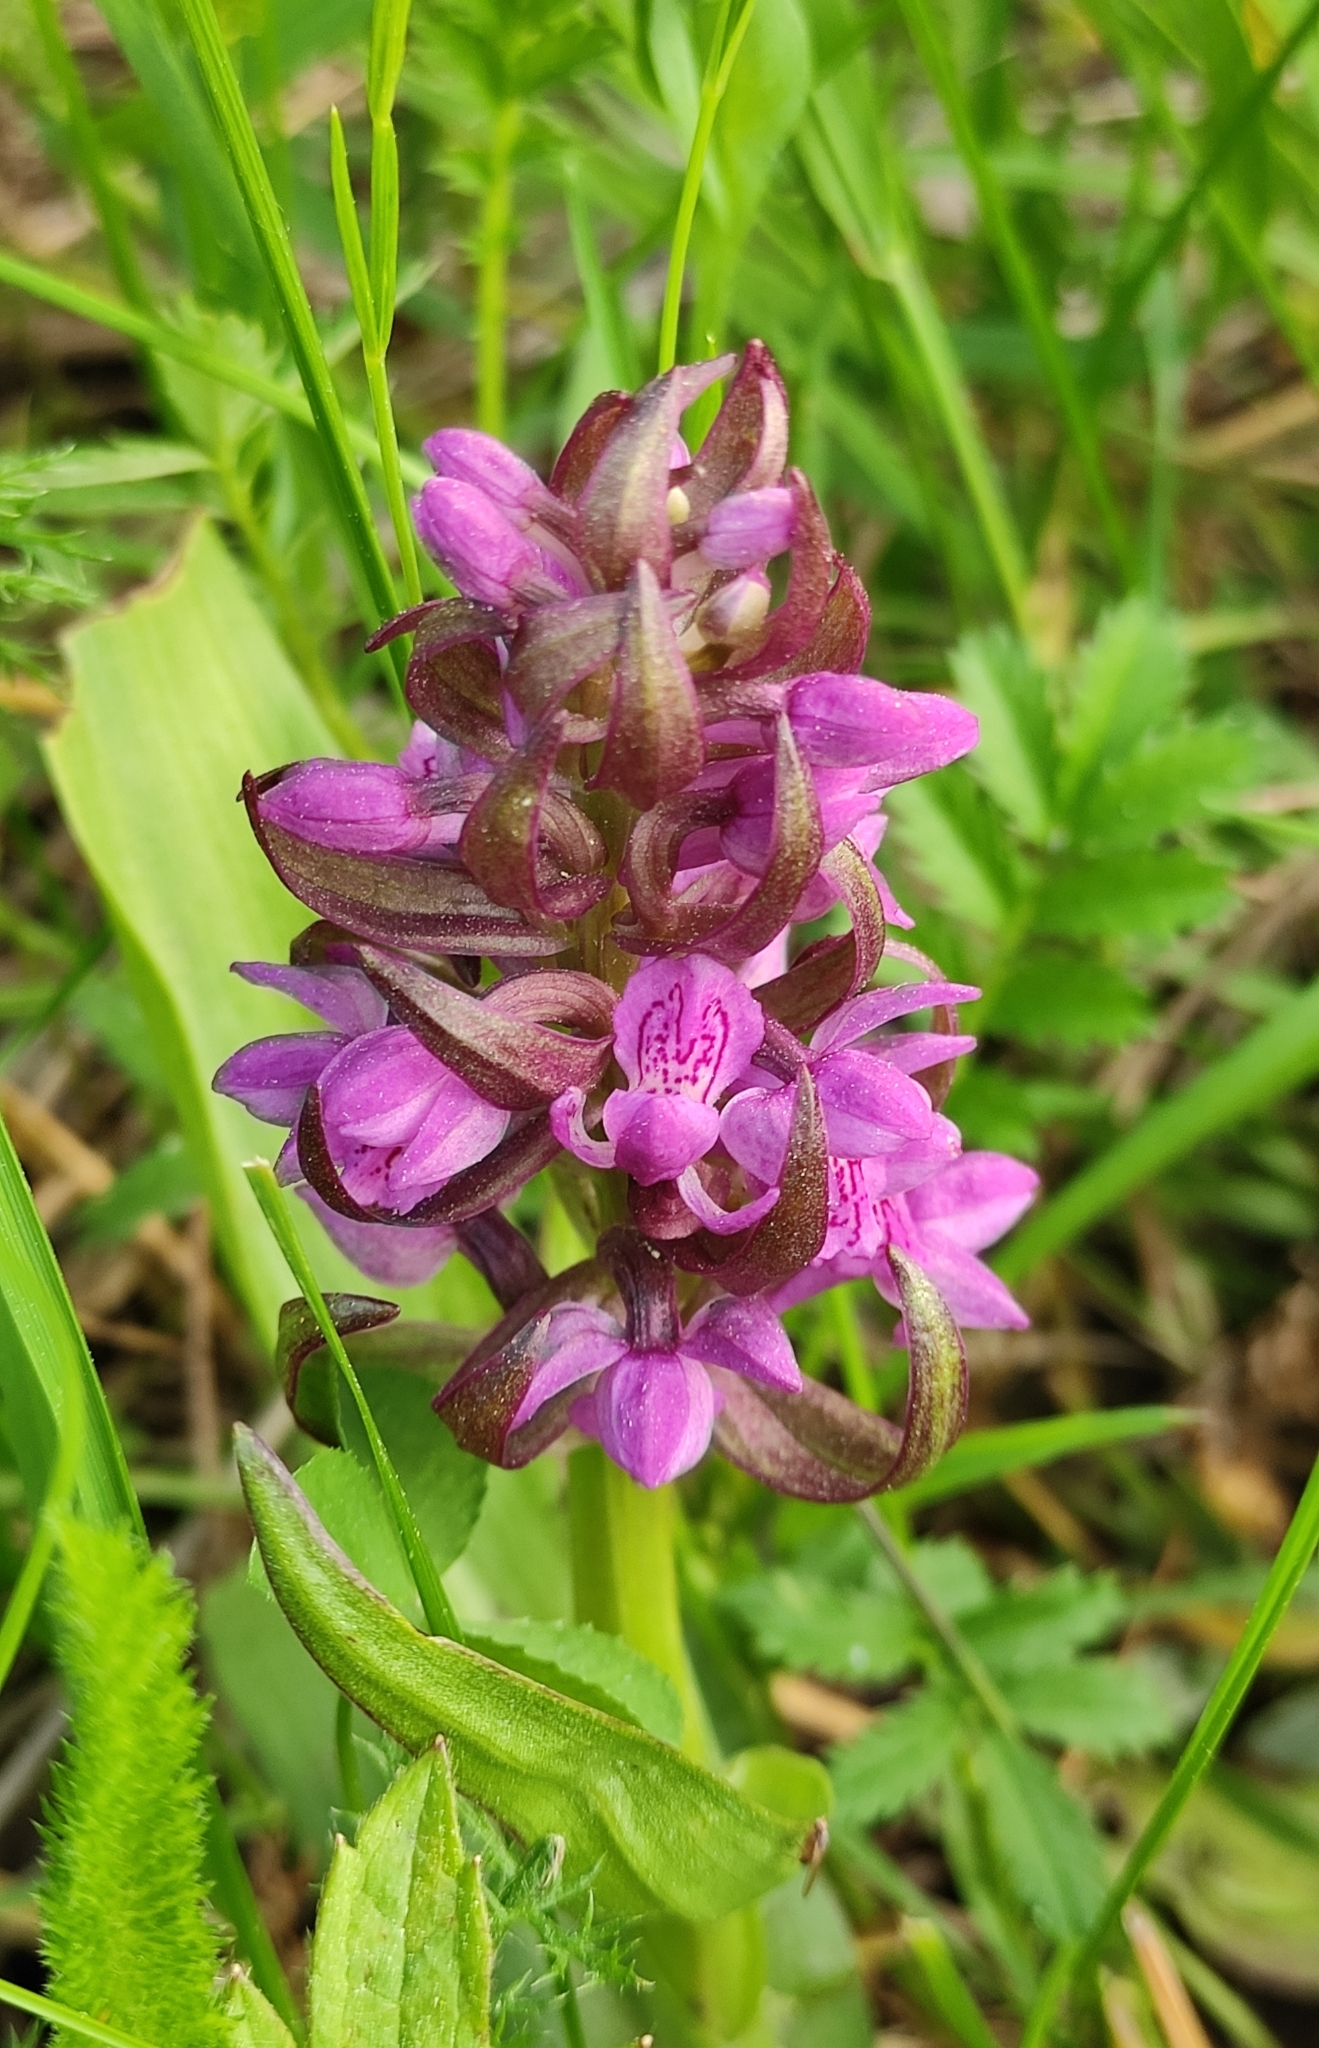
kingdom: Plantae
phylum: Tracheophyta
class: Liliopsida
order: Asparagales
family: Orchidaceae
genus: Dactylorhiza
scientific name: Dactylorhiza incarnata
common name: Early marsh-orchid
